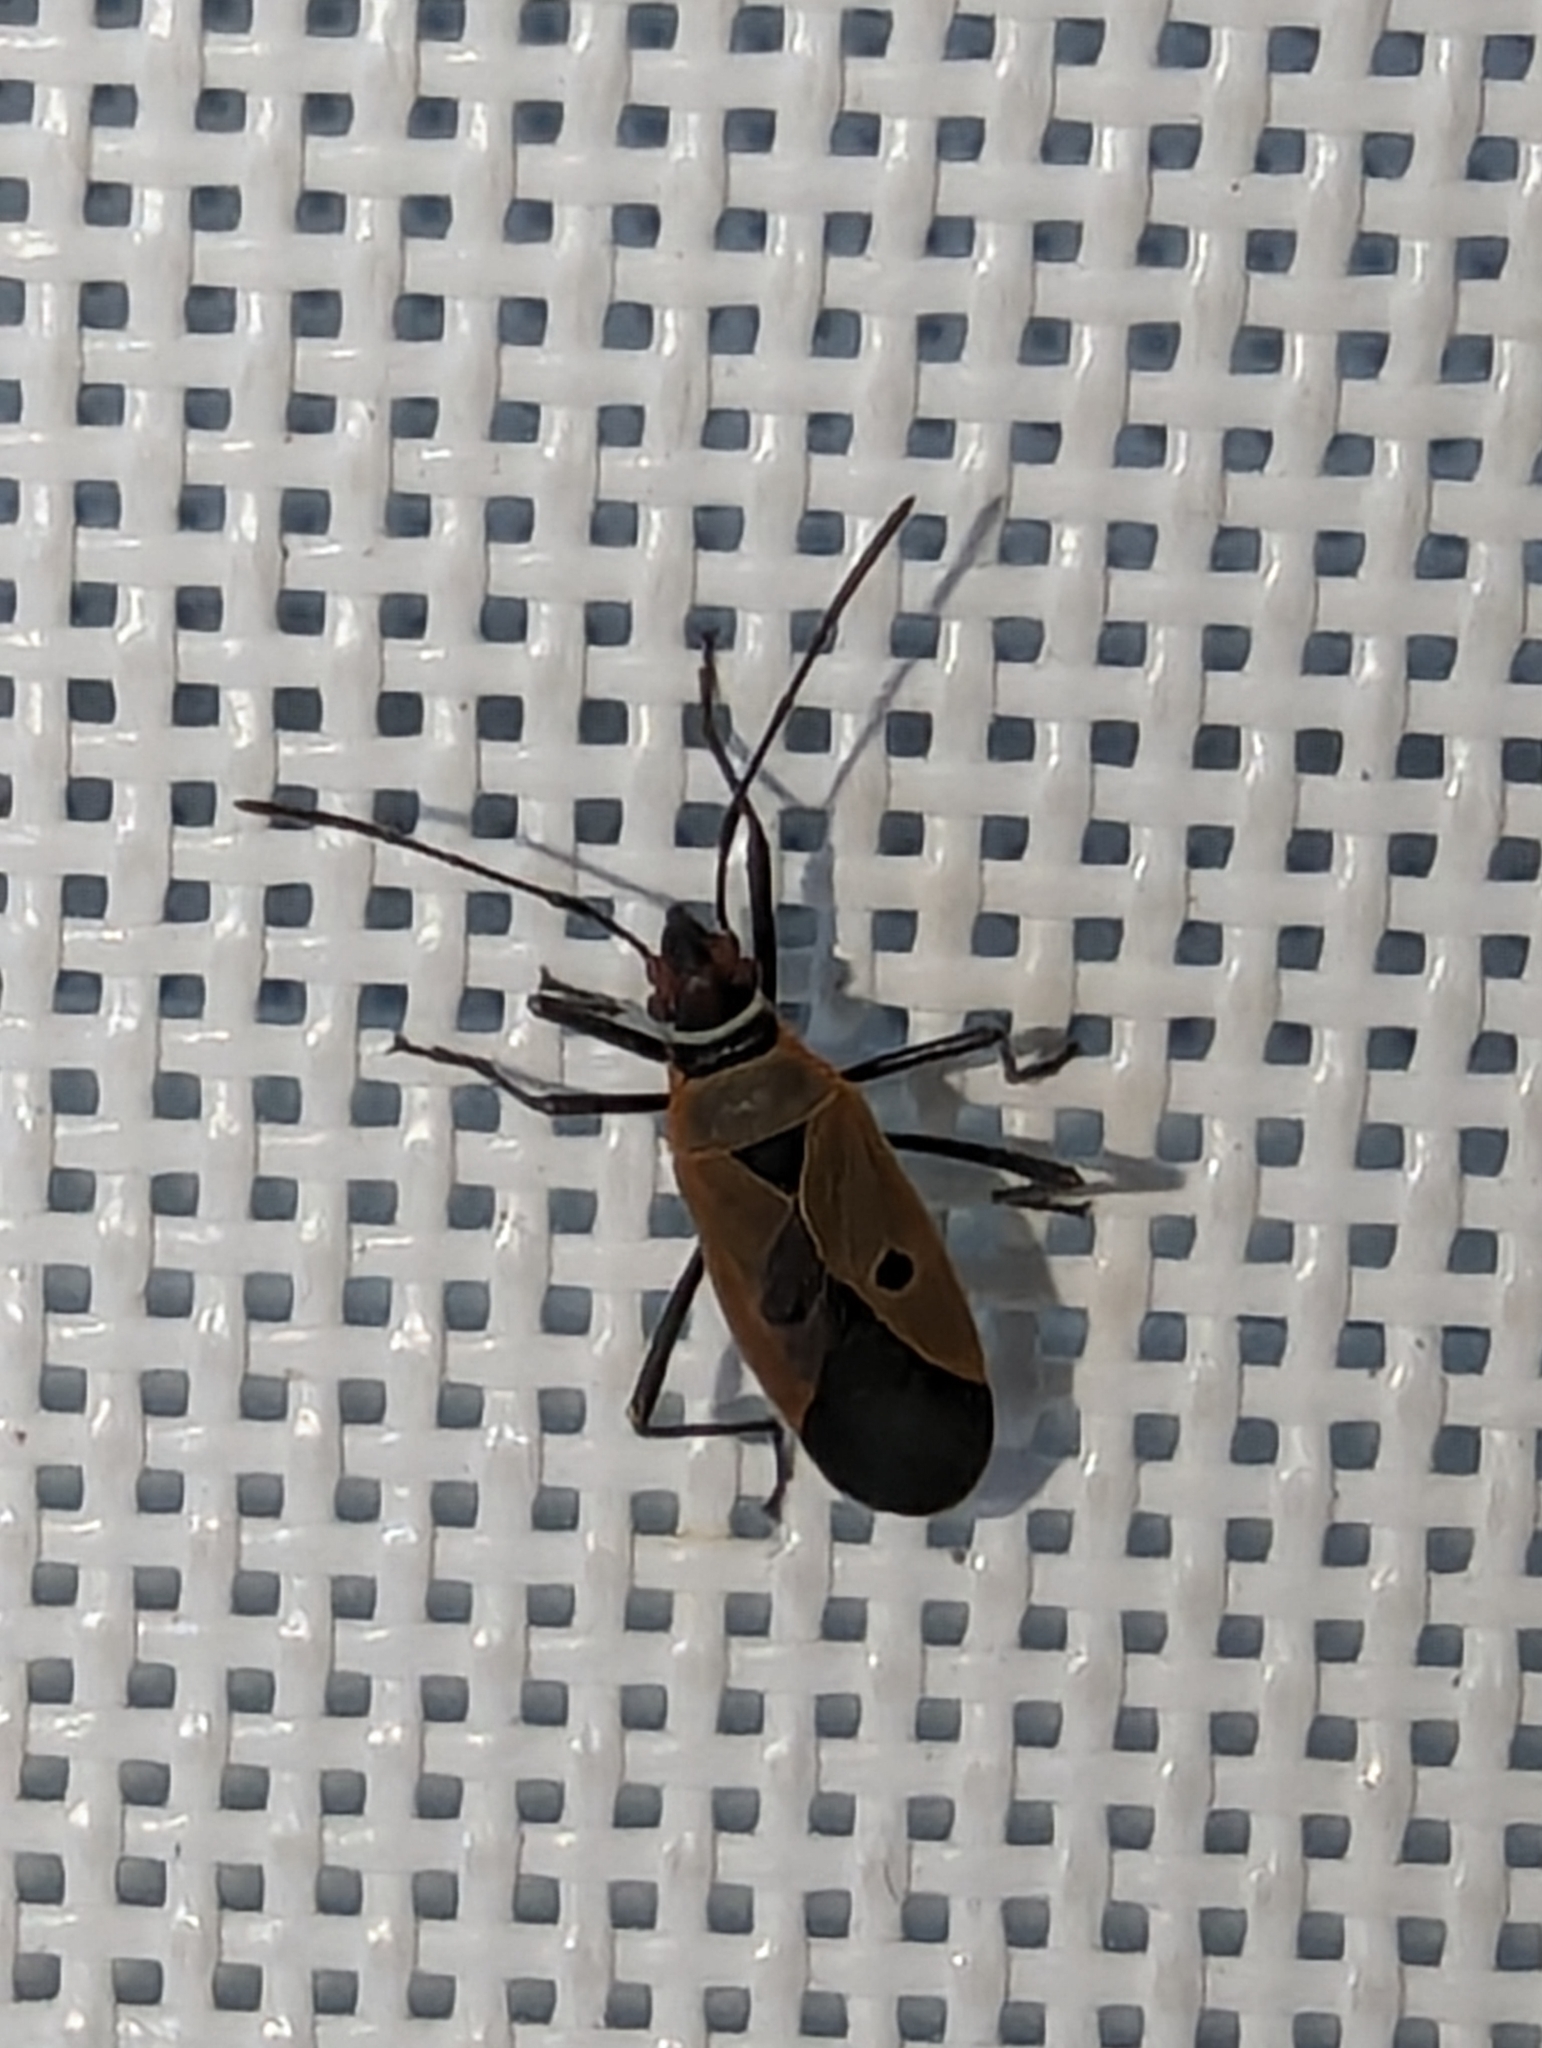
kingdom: Animalia
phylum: Arthropoda
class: Insecta
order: Hemiptera
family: Pyrrhocoridae
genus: Dysdercus
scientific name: Dysdercus sidae
